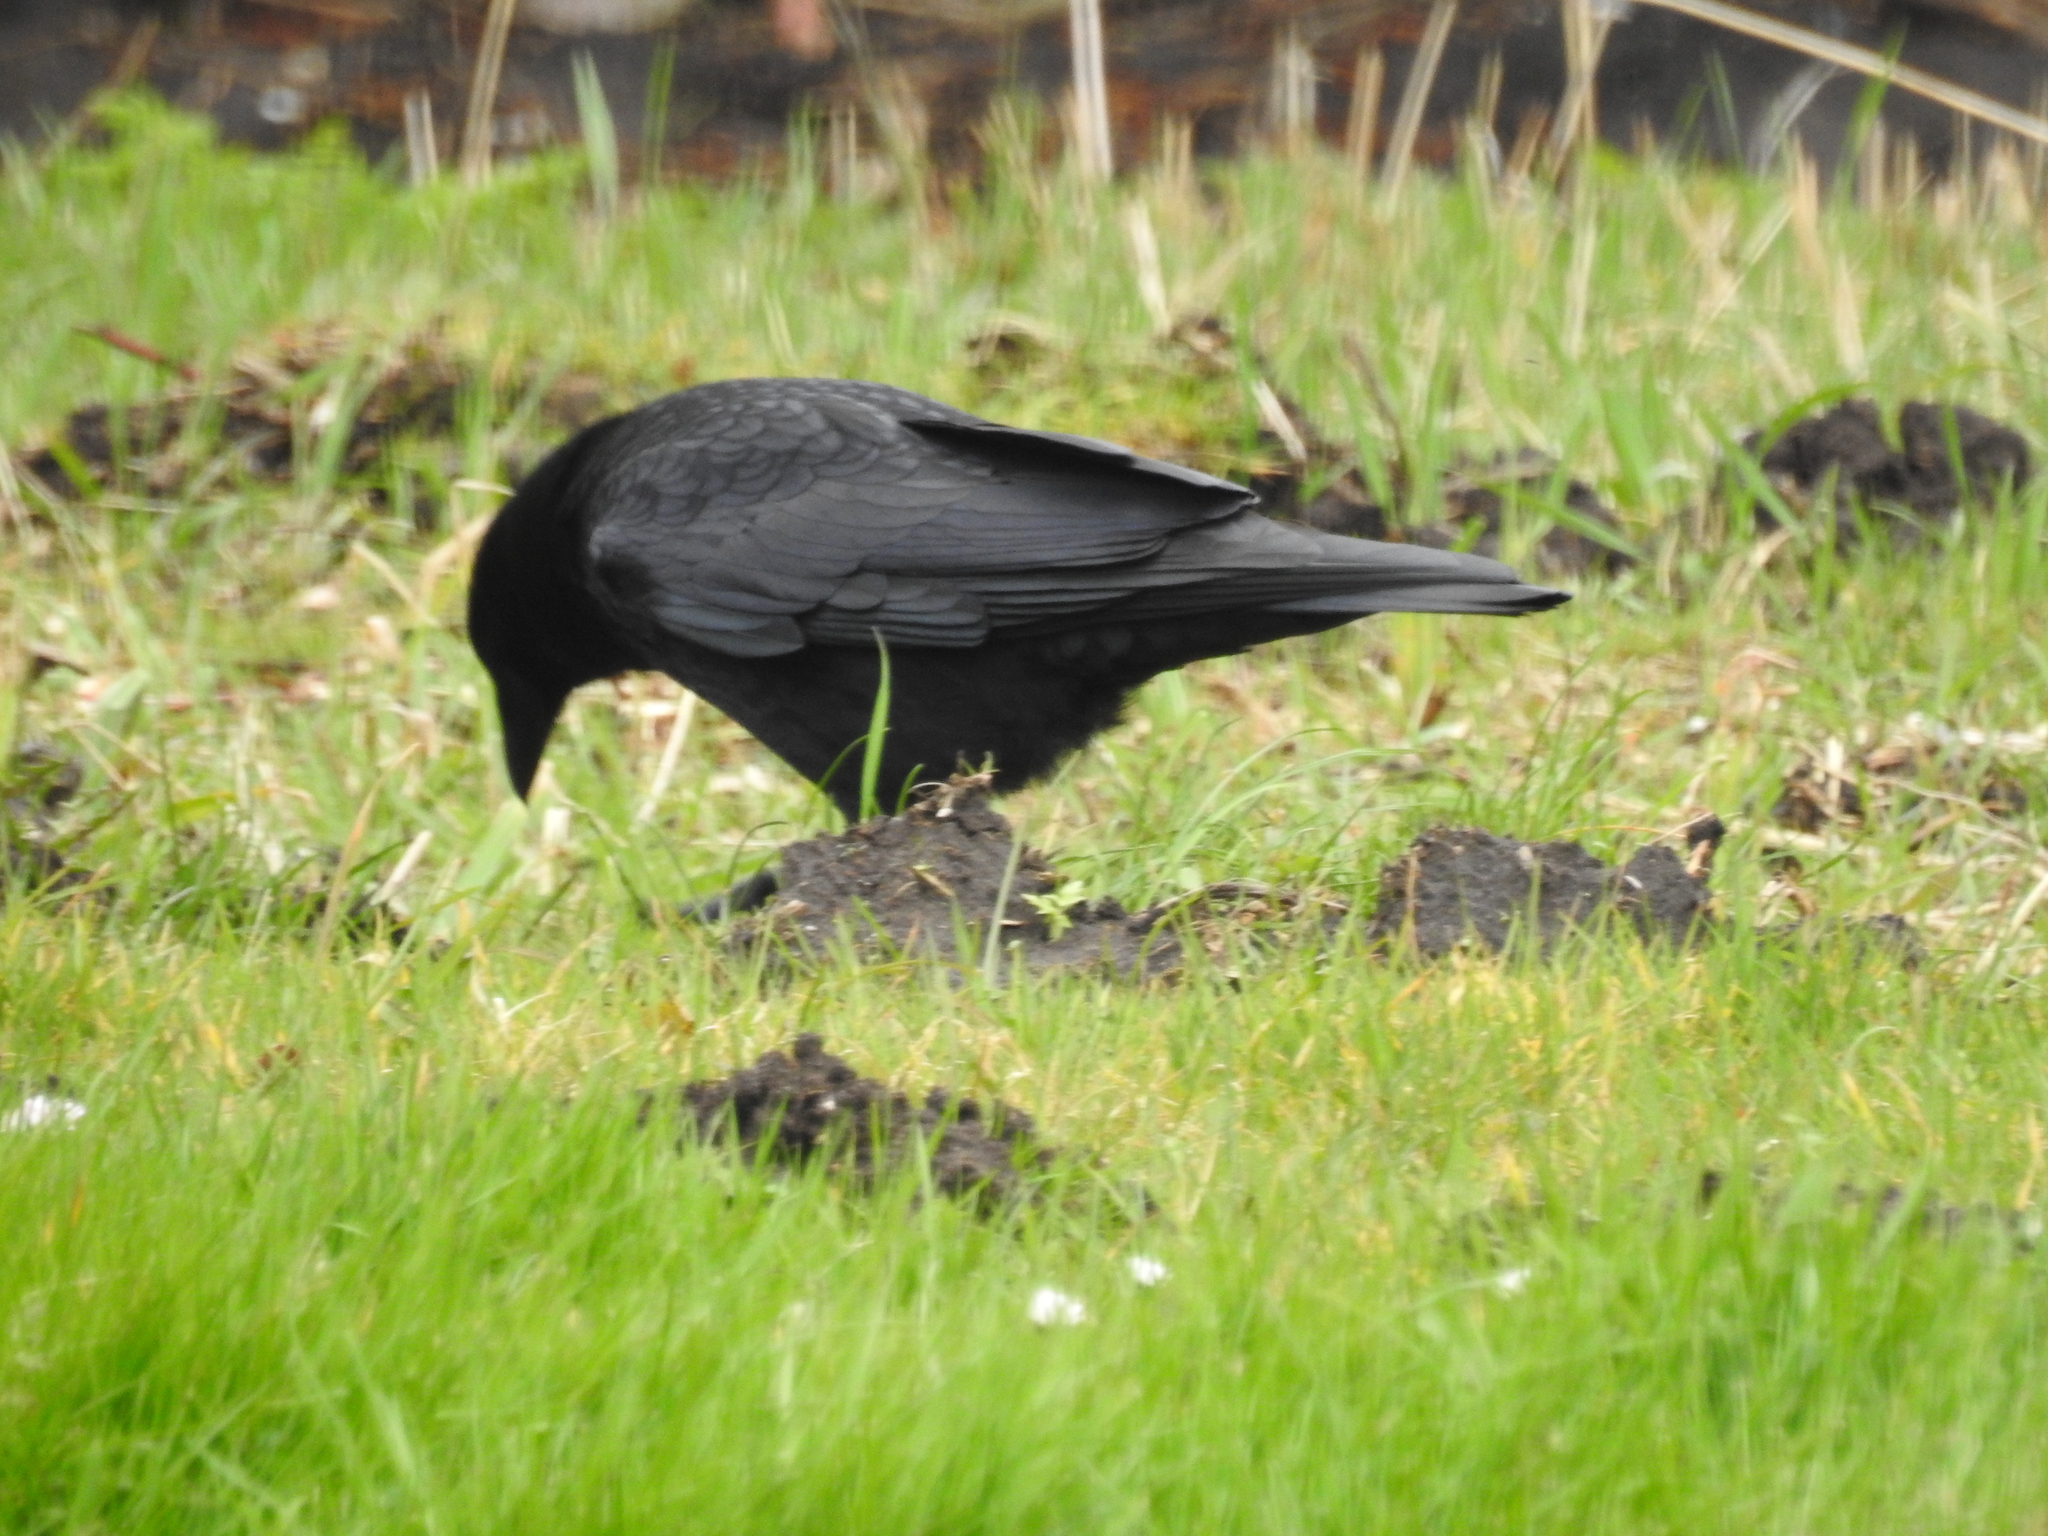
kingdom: Animalia
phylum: Chordata
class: Aves
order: Passeriformes
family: Corvidae
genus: Corvus
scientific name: Corvus corone
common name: Carrion crow
